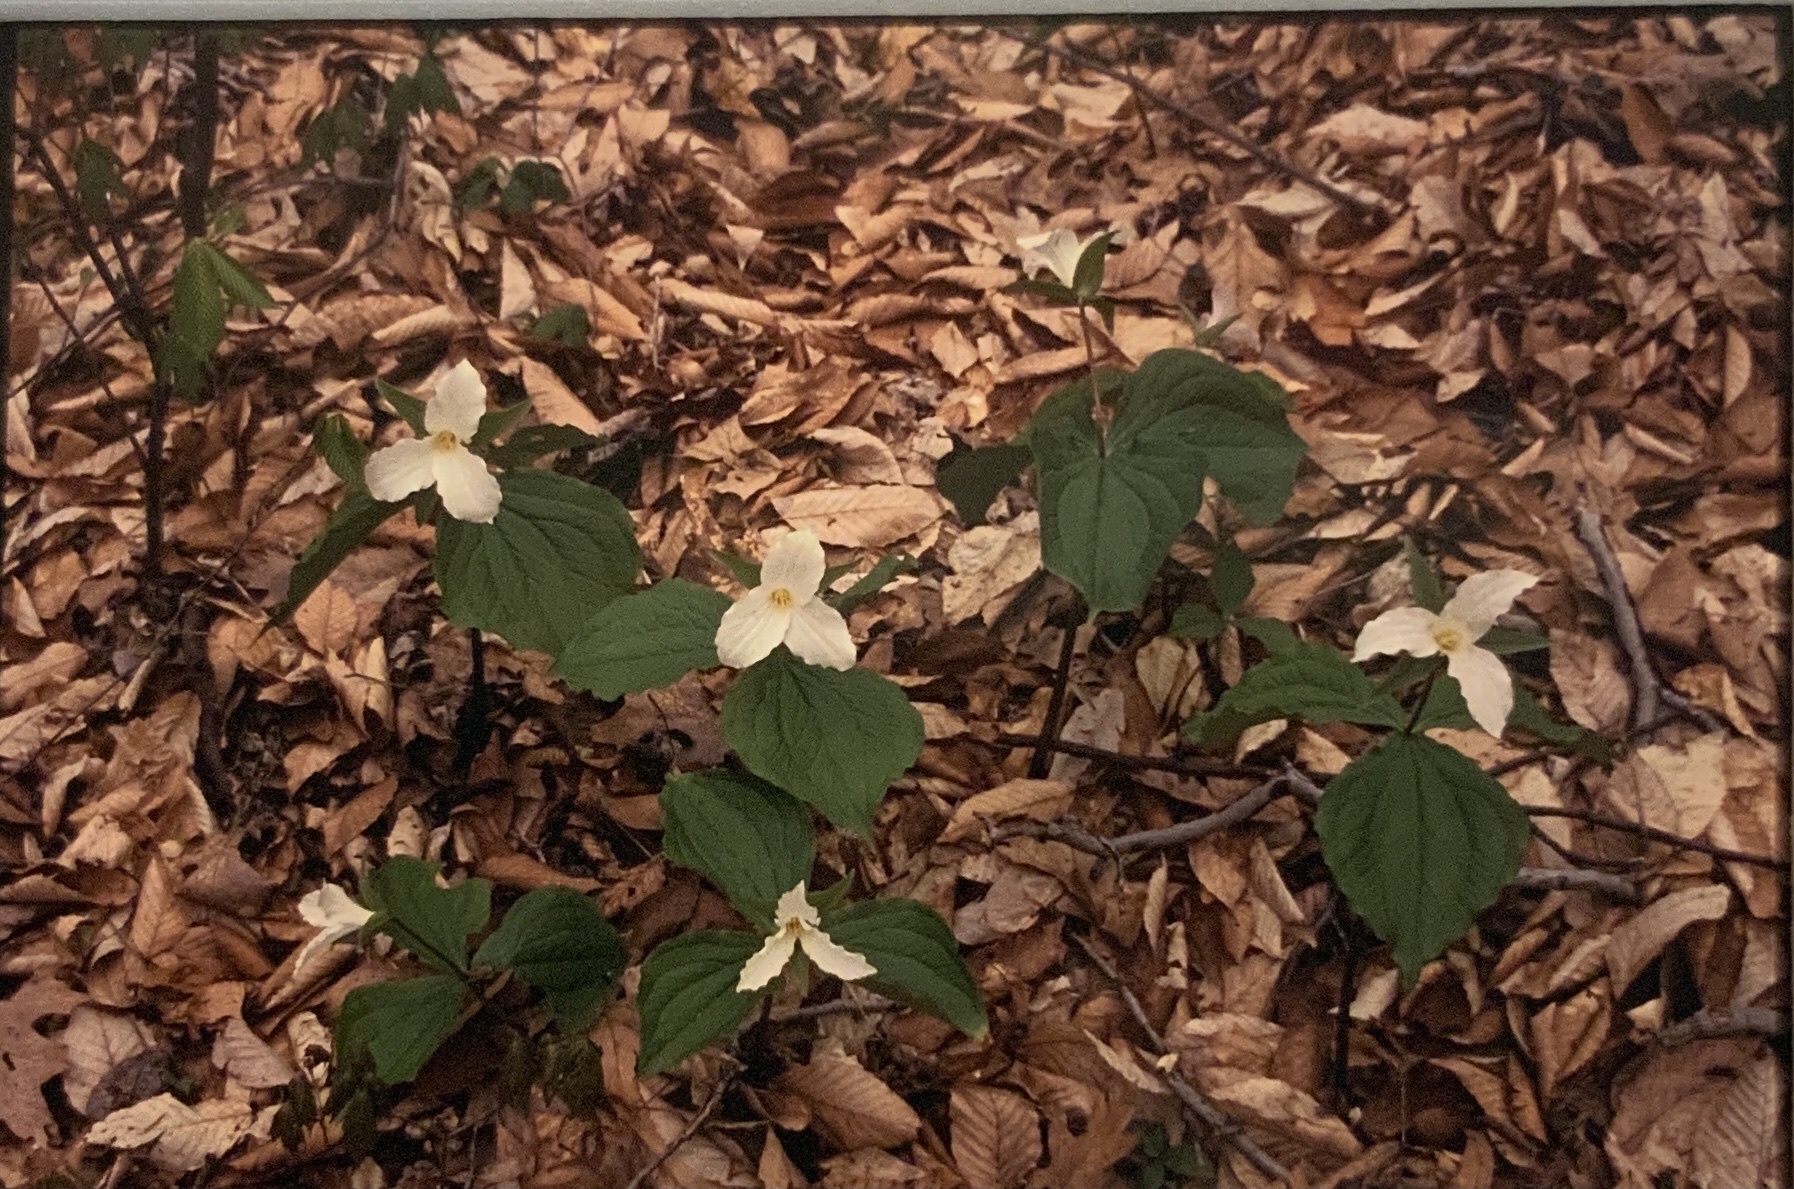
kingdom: Plantae
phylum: Tracheophyta
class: Liliopsida
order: Liliales
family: Melanthiaceae
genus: Trillium
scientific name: Trillium grandiflorum
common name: Great white trillium
